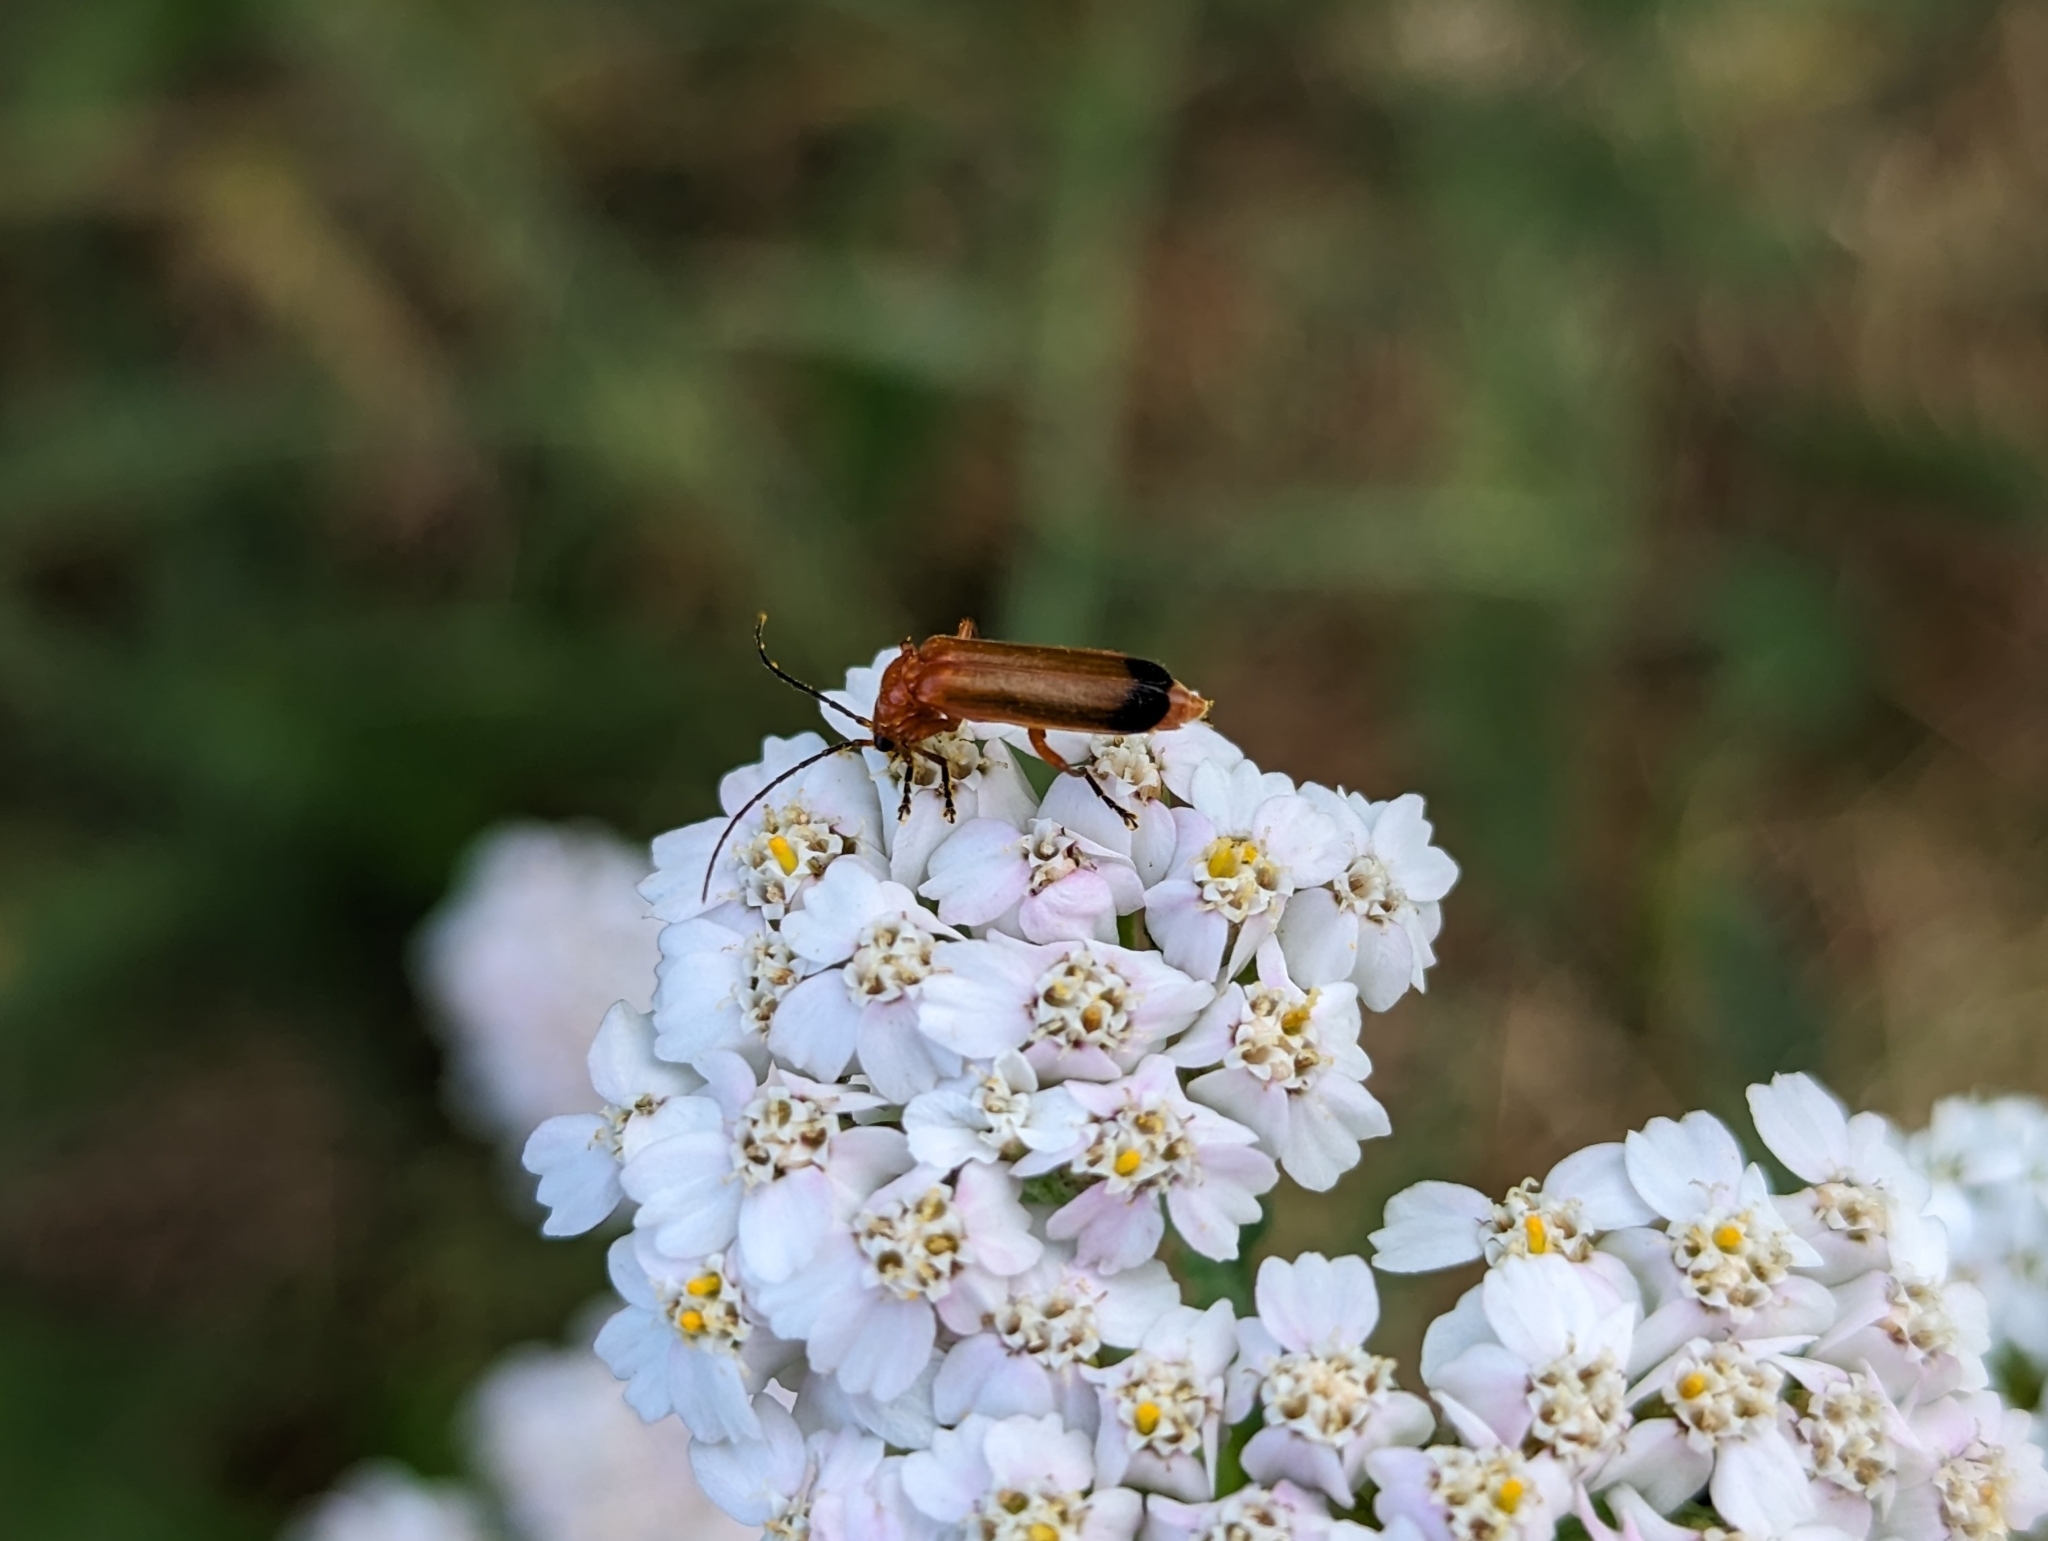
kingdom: Animalia
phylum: Arthropoda
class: Insecta
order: Coleoptera
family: Cantharidae
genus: Rhagonycha
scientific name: Rhagonycha fulva
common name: Common red soldier beetle
